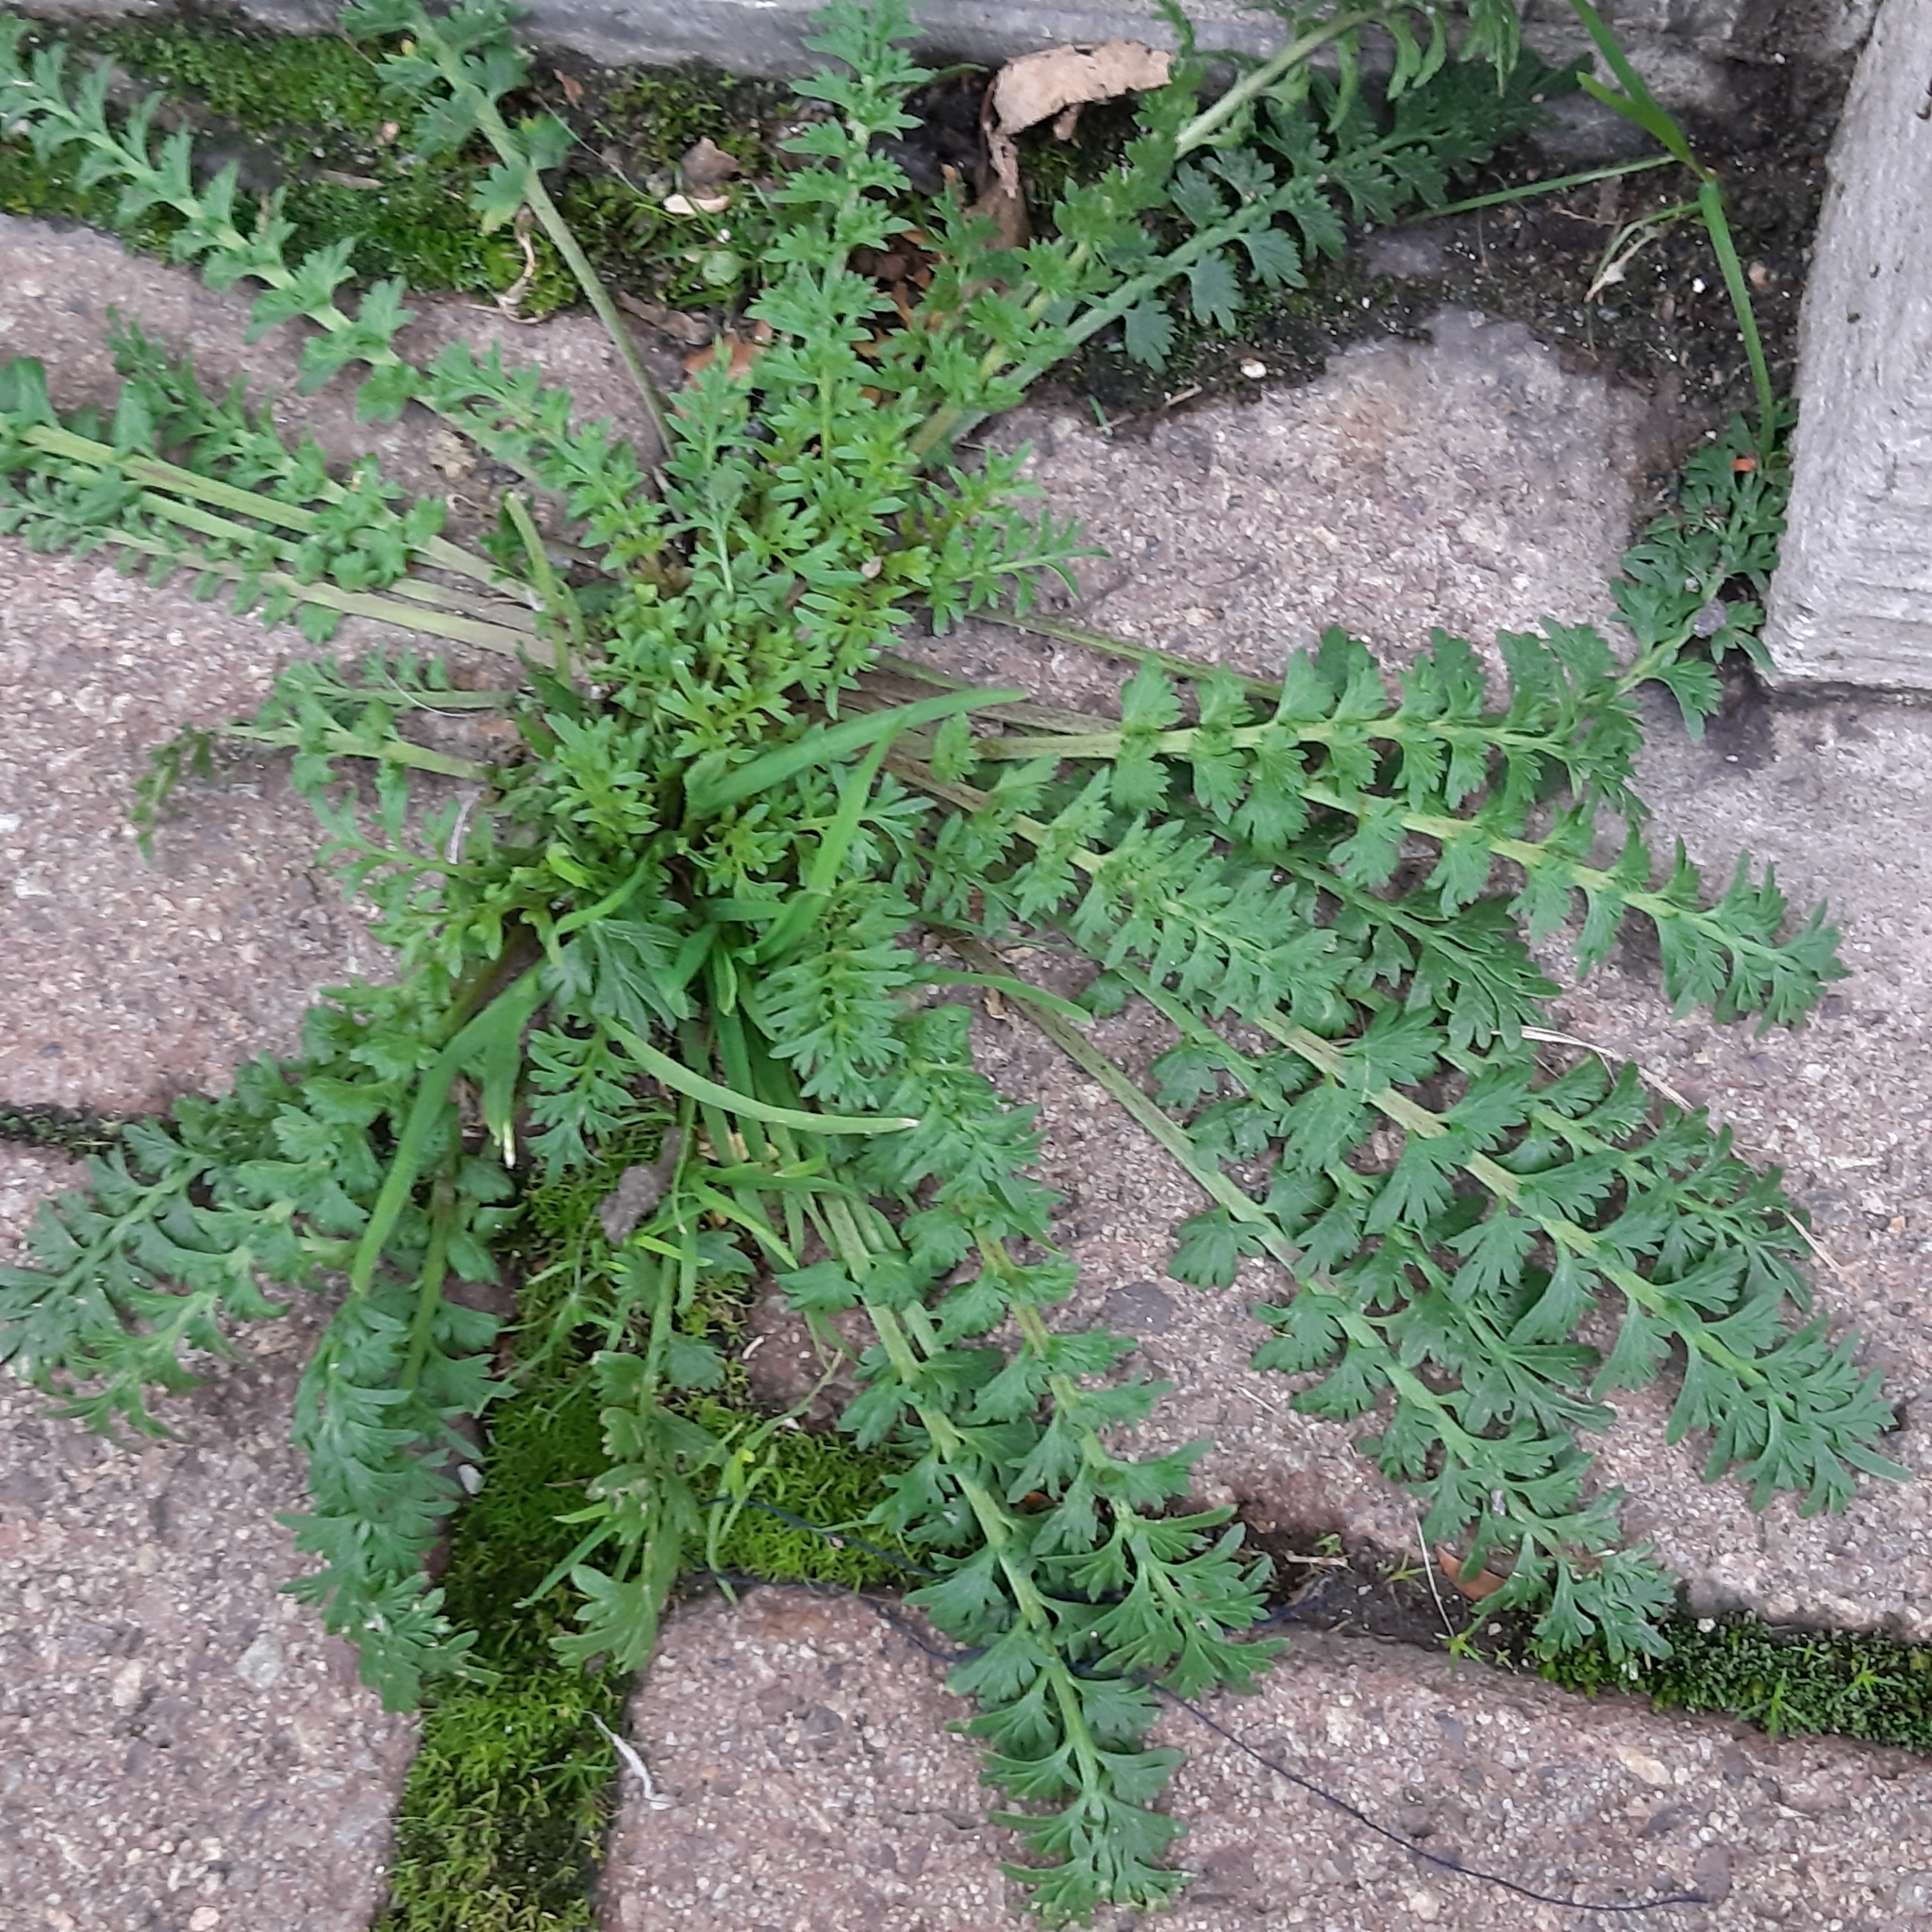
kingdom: Plantae
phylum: Tracheophyta
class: Magnoliopsida
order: Brassicales
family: Brassicaceae
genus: Lepidium
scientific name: Lepidium didymum
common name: Lesser swinecress
